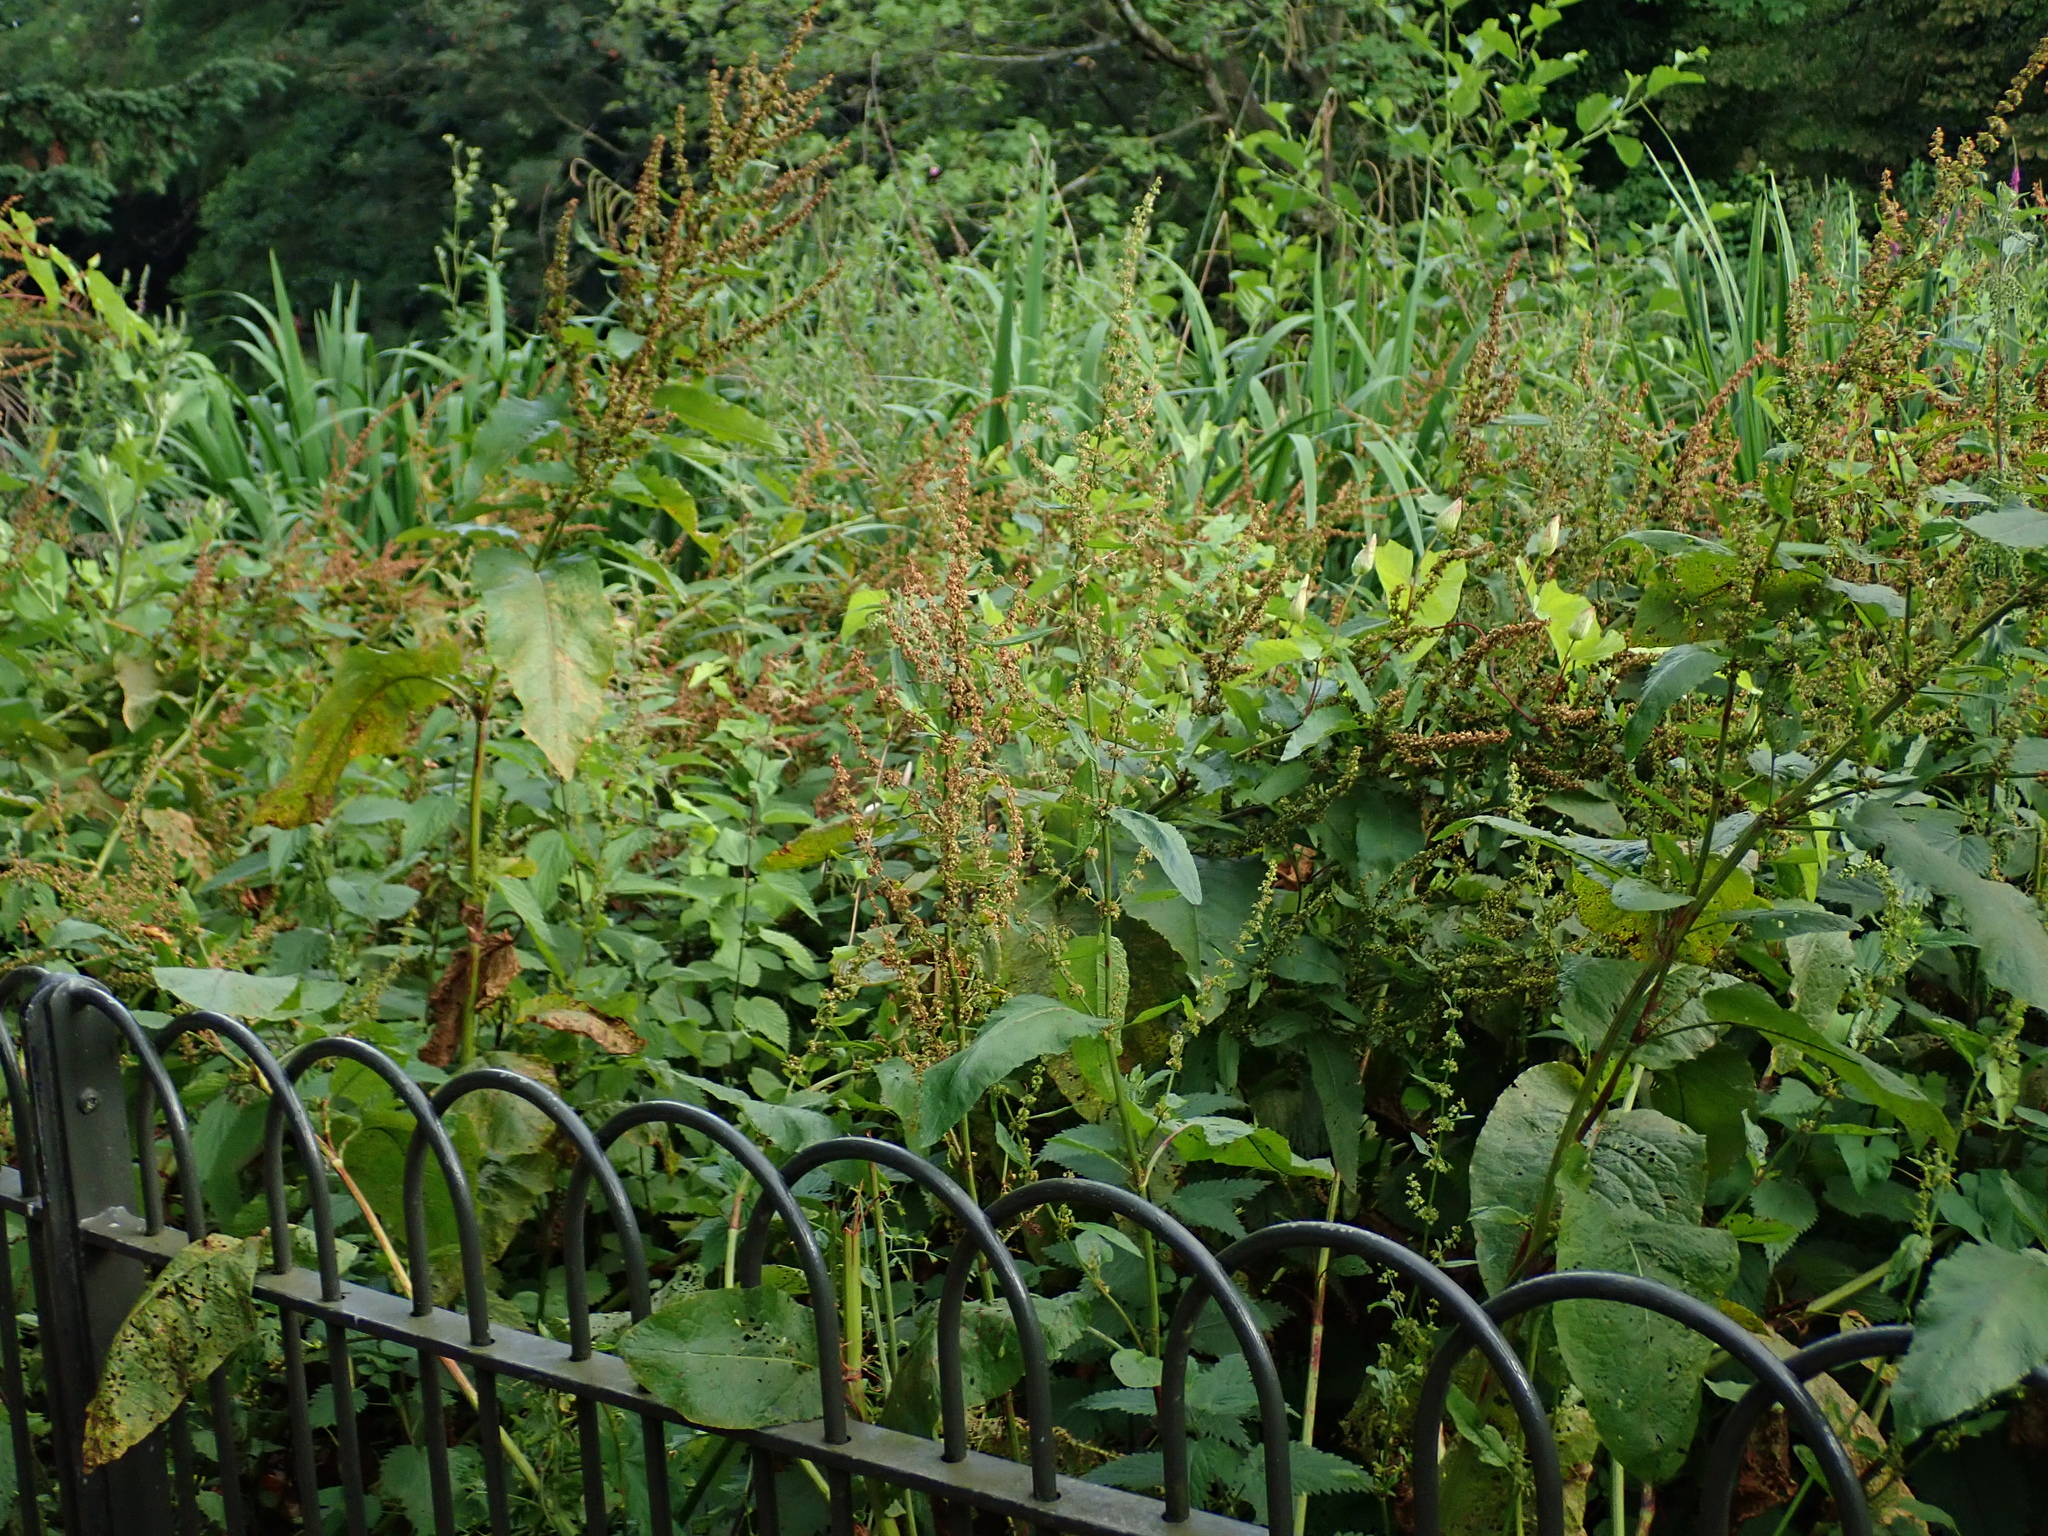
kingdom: Plantae
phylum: Tracheophyta
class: Magnoliopsida
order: Caryophyllales
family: Polygonaceae
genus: Rumex
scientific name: Rumex obtusifolius
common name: Bitter dock
